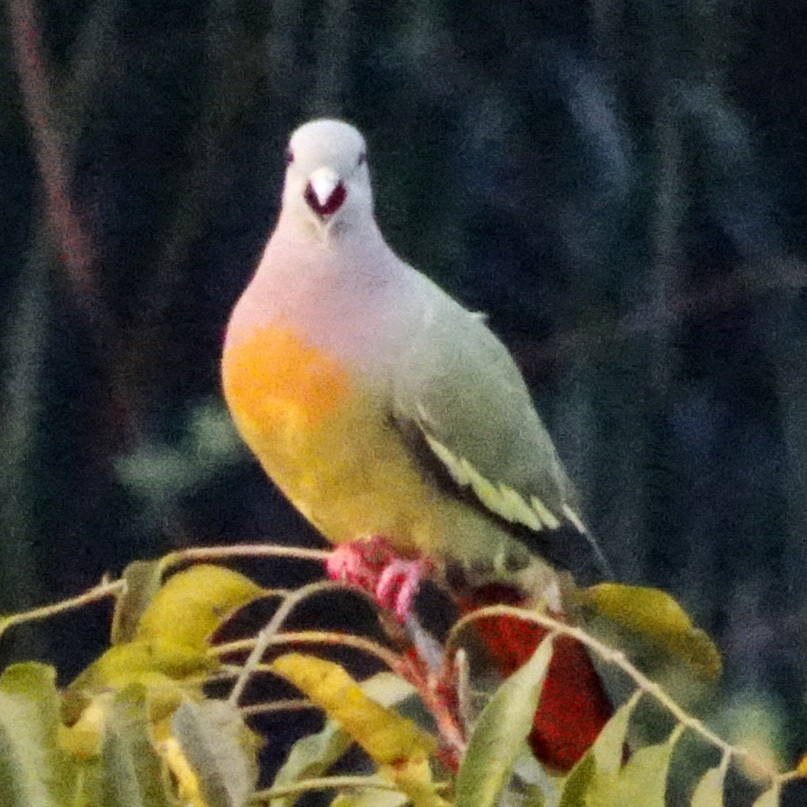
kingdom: Animalia
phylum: Chordata
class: Aves
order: Columbiformes
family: Columbidae
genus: Treron
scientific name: Treron vernans
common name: Pink-necked green pigeon
